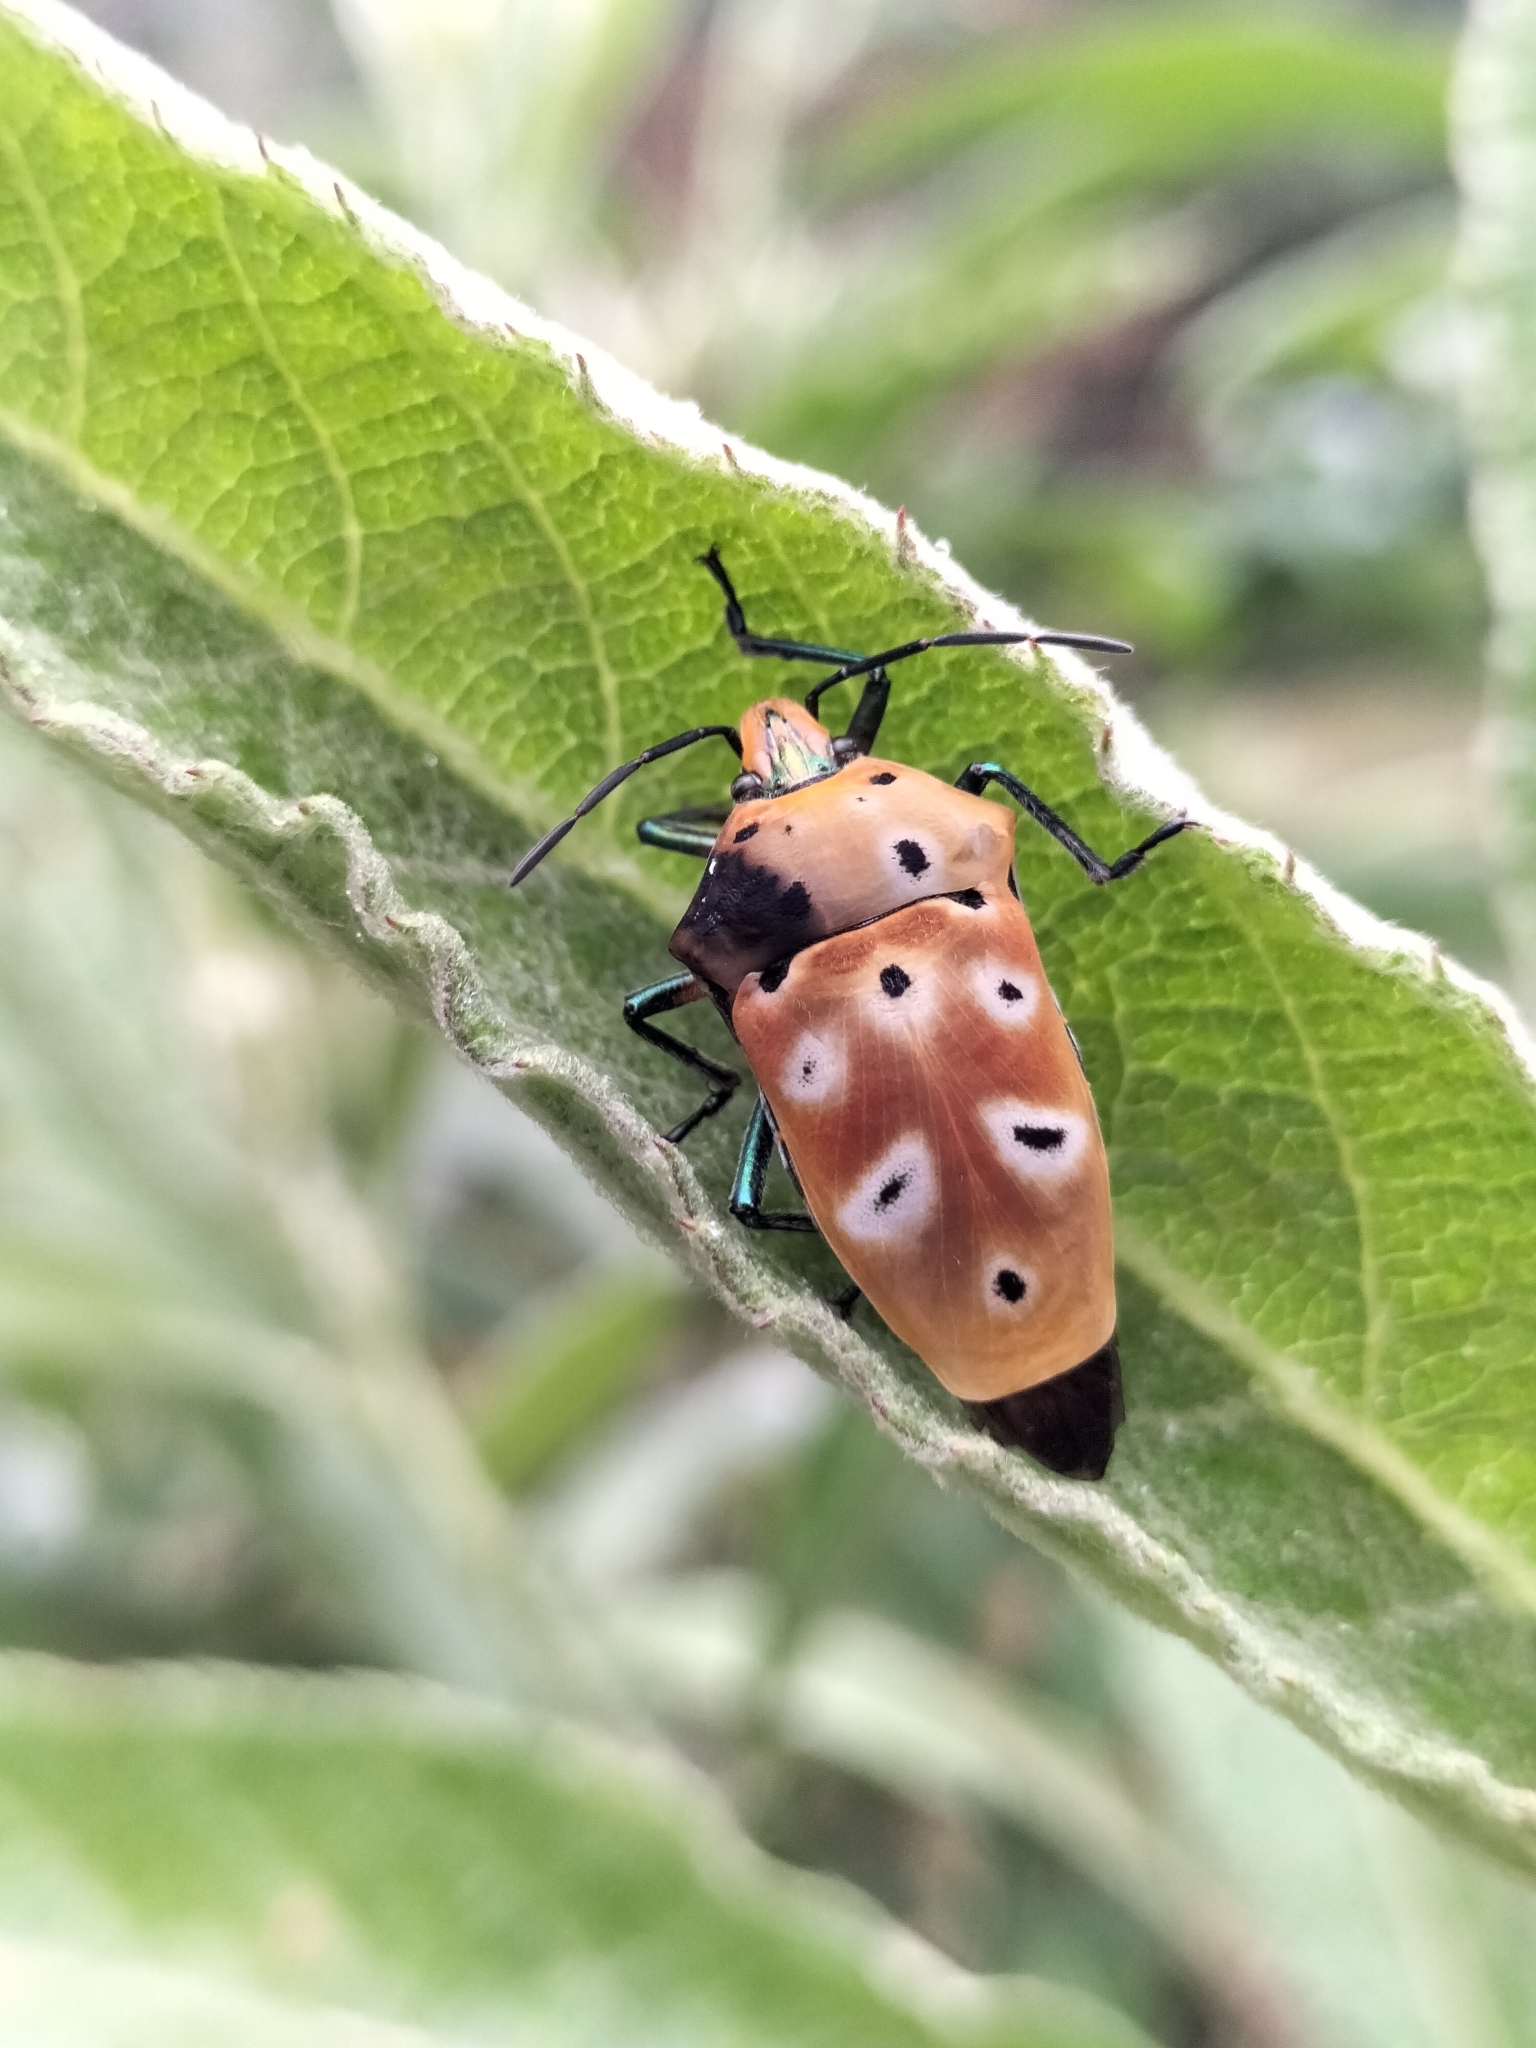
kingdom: Animalia
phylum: Arthropoda
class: Insecta
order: Hemiptera
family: Scutelleridae
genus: Cantao
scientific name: Cantao ocellatus
